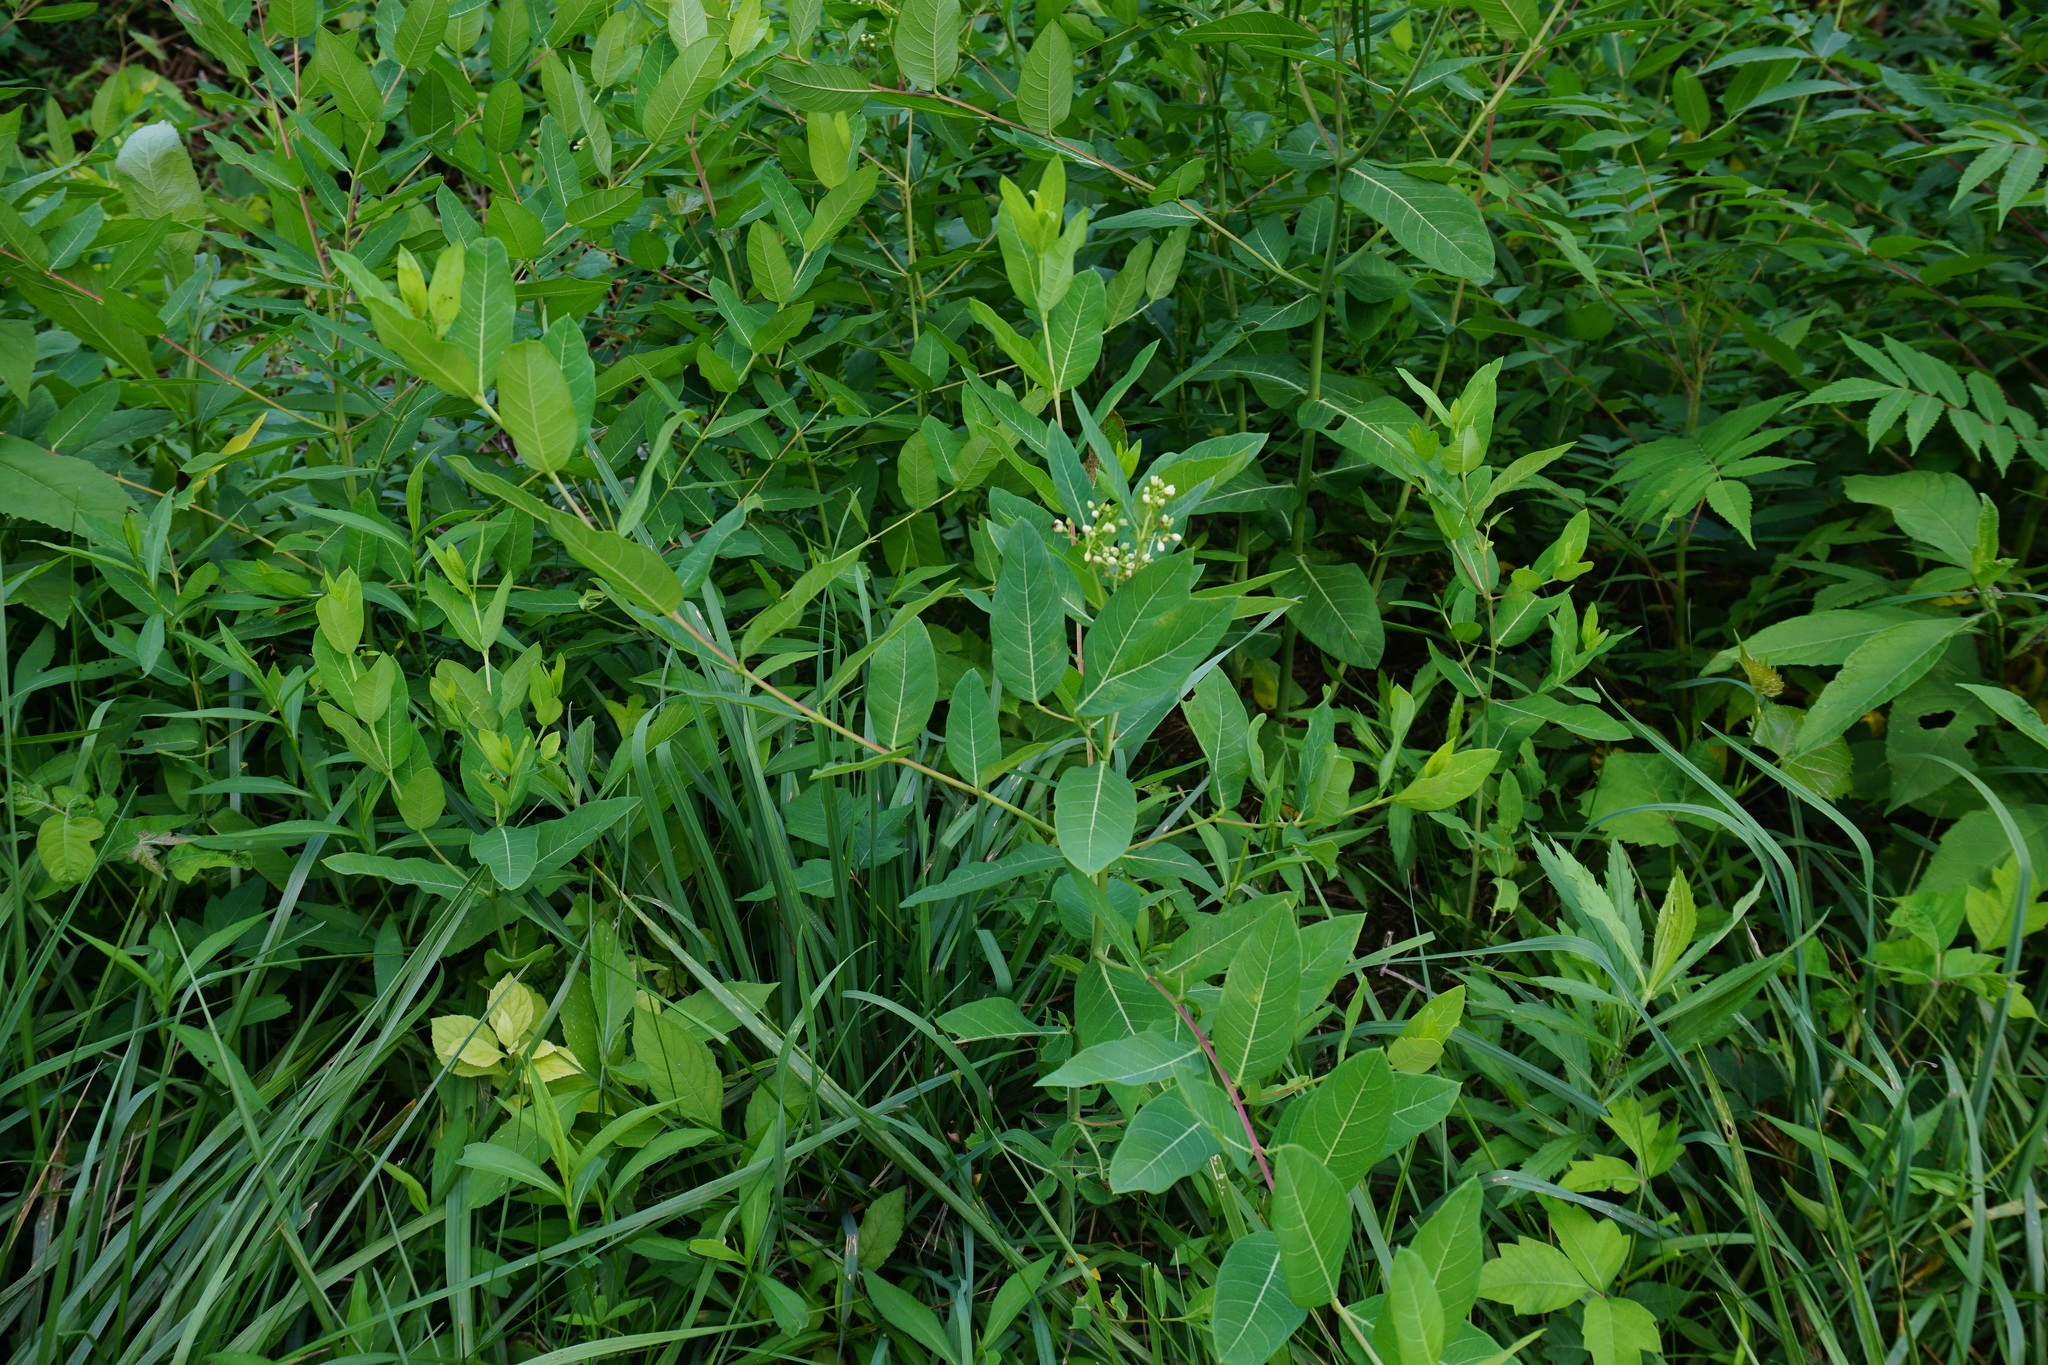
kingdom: Plantae
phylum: Tracheophyta
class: Magnoliopsida
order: Gentianales
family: Apocynaceae
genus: Apocynum
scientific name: Apocynum cannabinum
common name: Hemp dogbane
